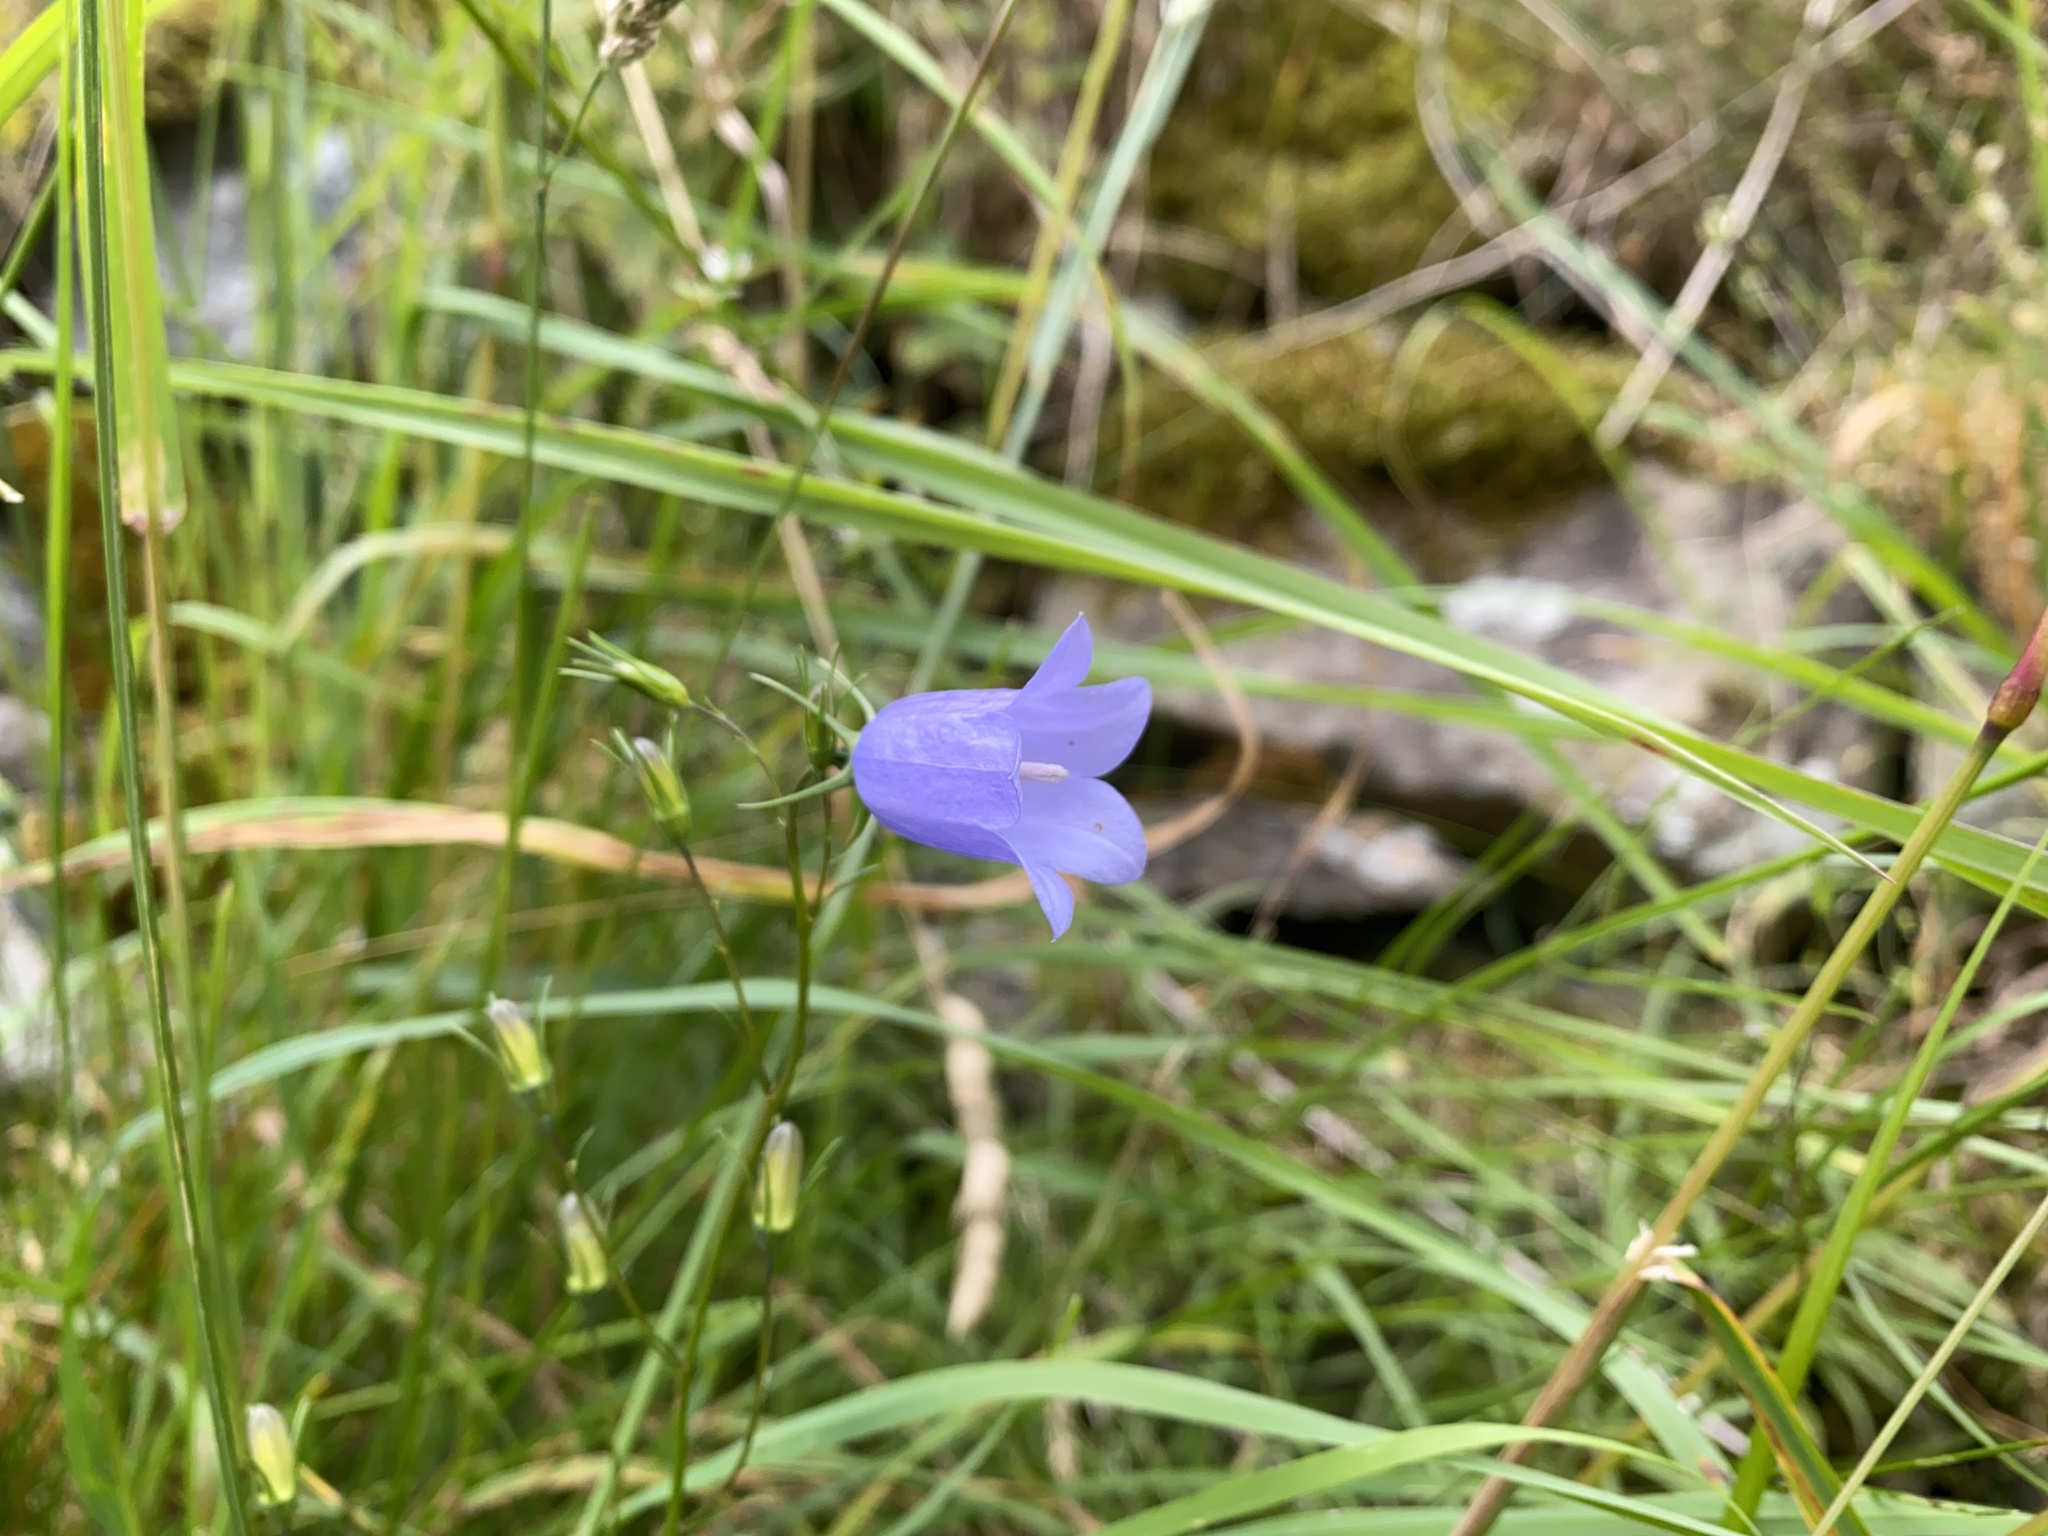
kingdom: Plantae
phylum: Tracheophyta
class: Magnoliopsida
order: Asterales
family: Campanulaceae
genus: Campanula
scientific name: Campanula rotundifolia
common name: Harebell
